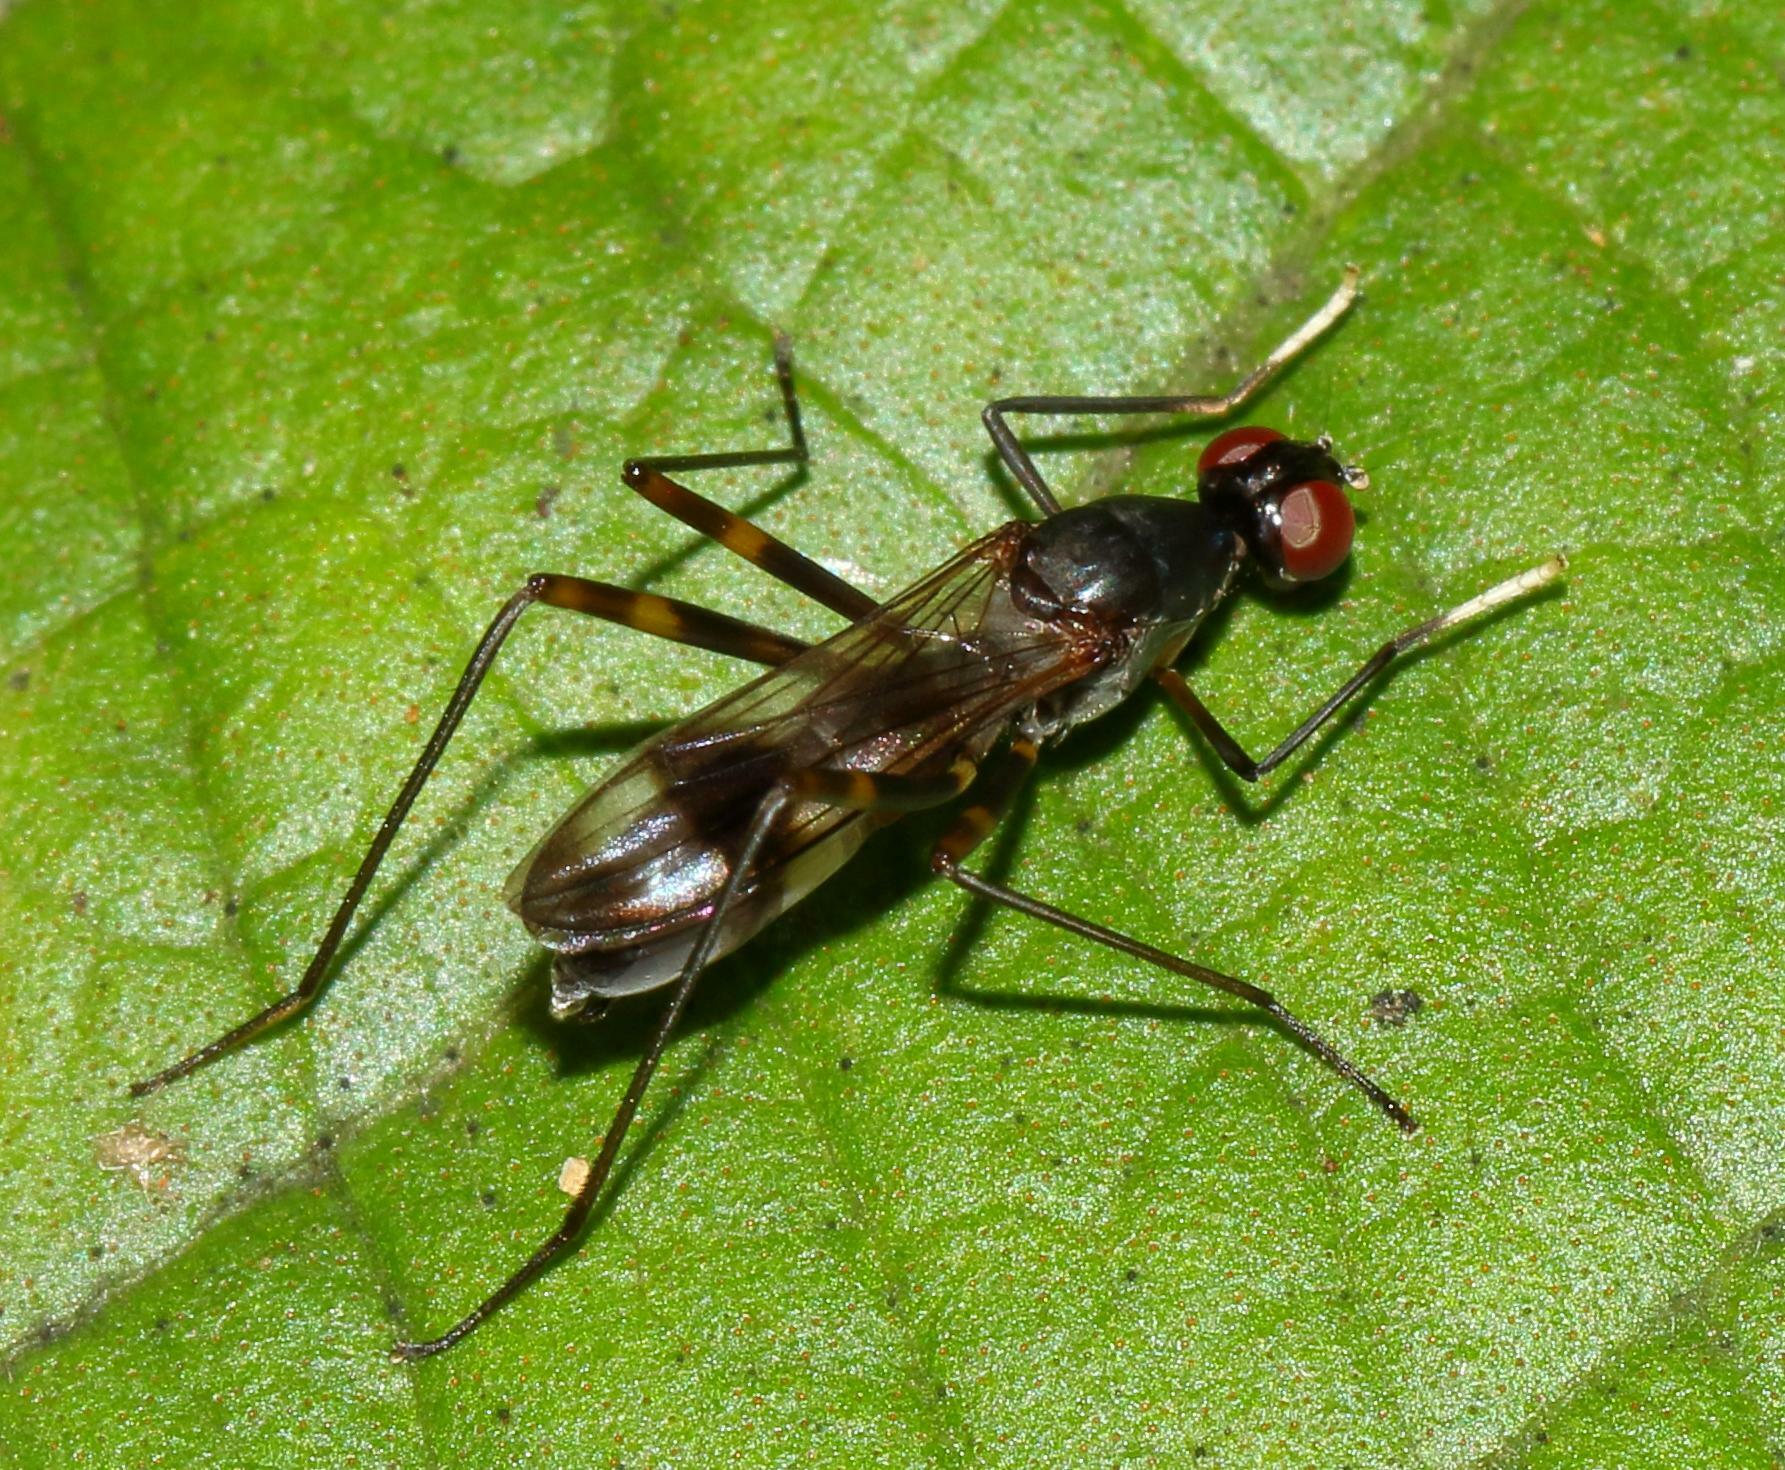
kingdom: Animalia
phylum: Arthropoda
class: Insecta
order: Diptera
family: Micropezidae
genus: Hybobata
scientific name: Hybobata
